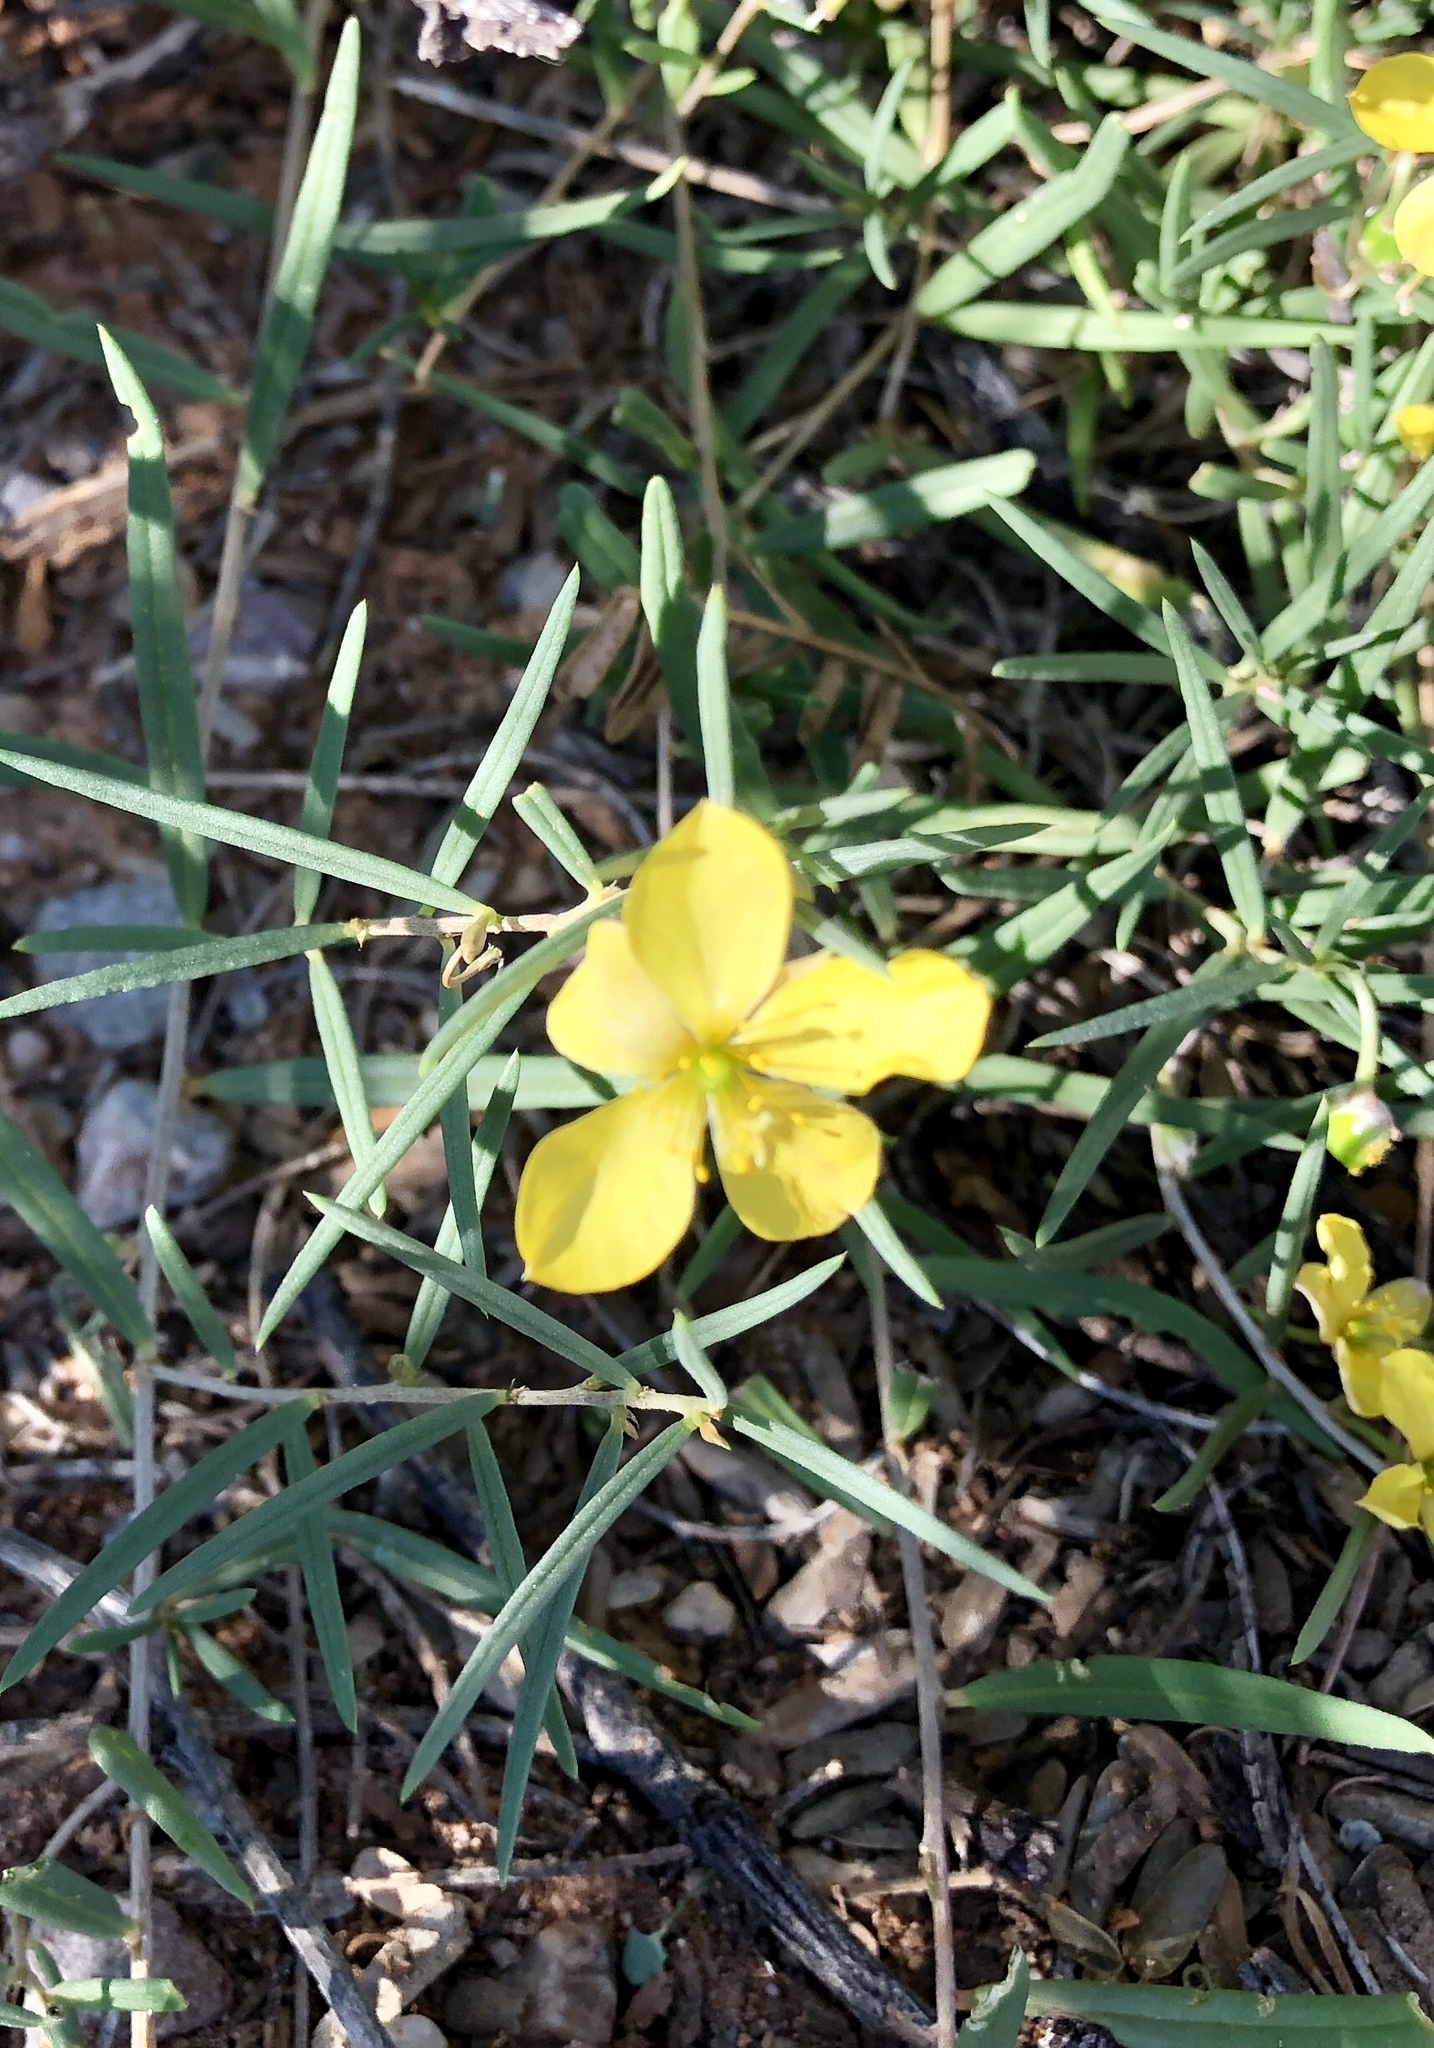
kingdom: Plantae
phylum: Tracheophyta
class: Magnoliopsida
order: Caryophyllales
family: Talinaceae
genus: Talinum
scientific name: Talinum polygaloides
